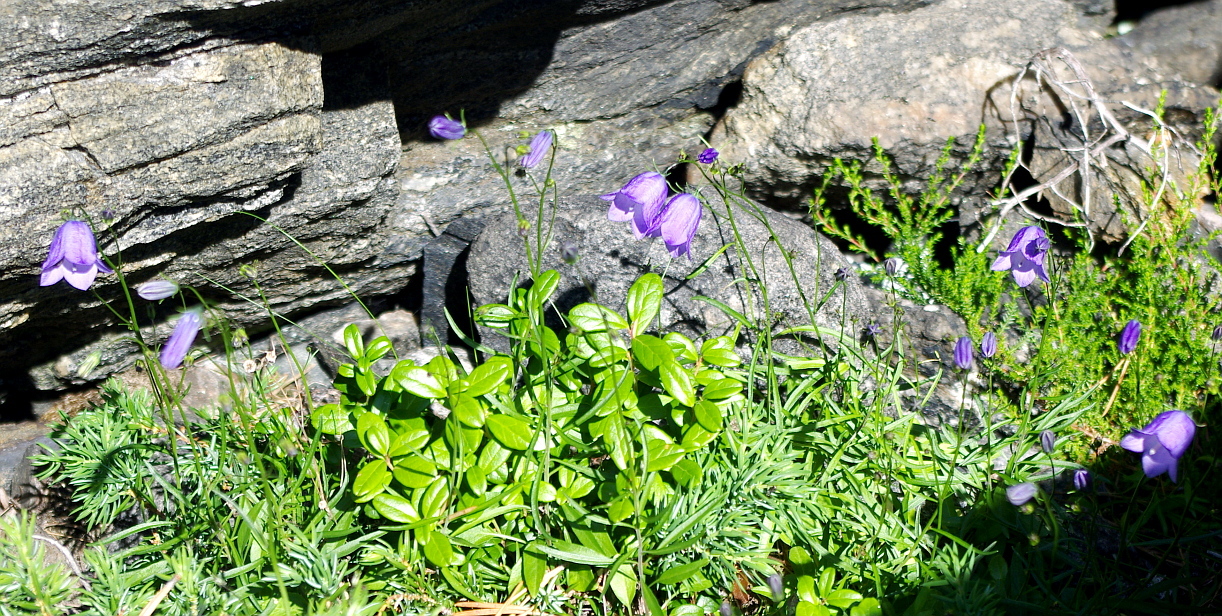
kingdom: Plantae
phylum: Tracheophyta
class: Magnoliopsida
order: Asterales
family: Campanulaceae
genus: Campanula
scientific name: Campanula rotundifolia
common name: Harebell
